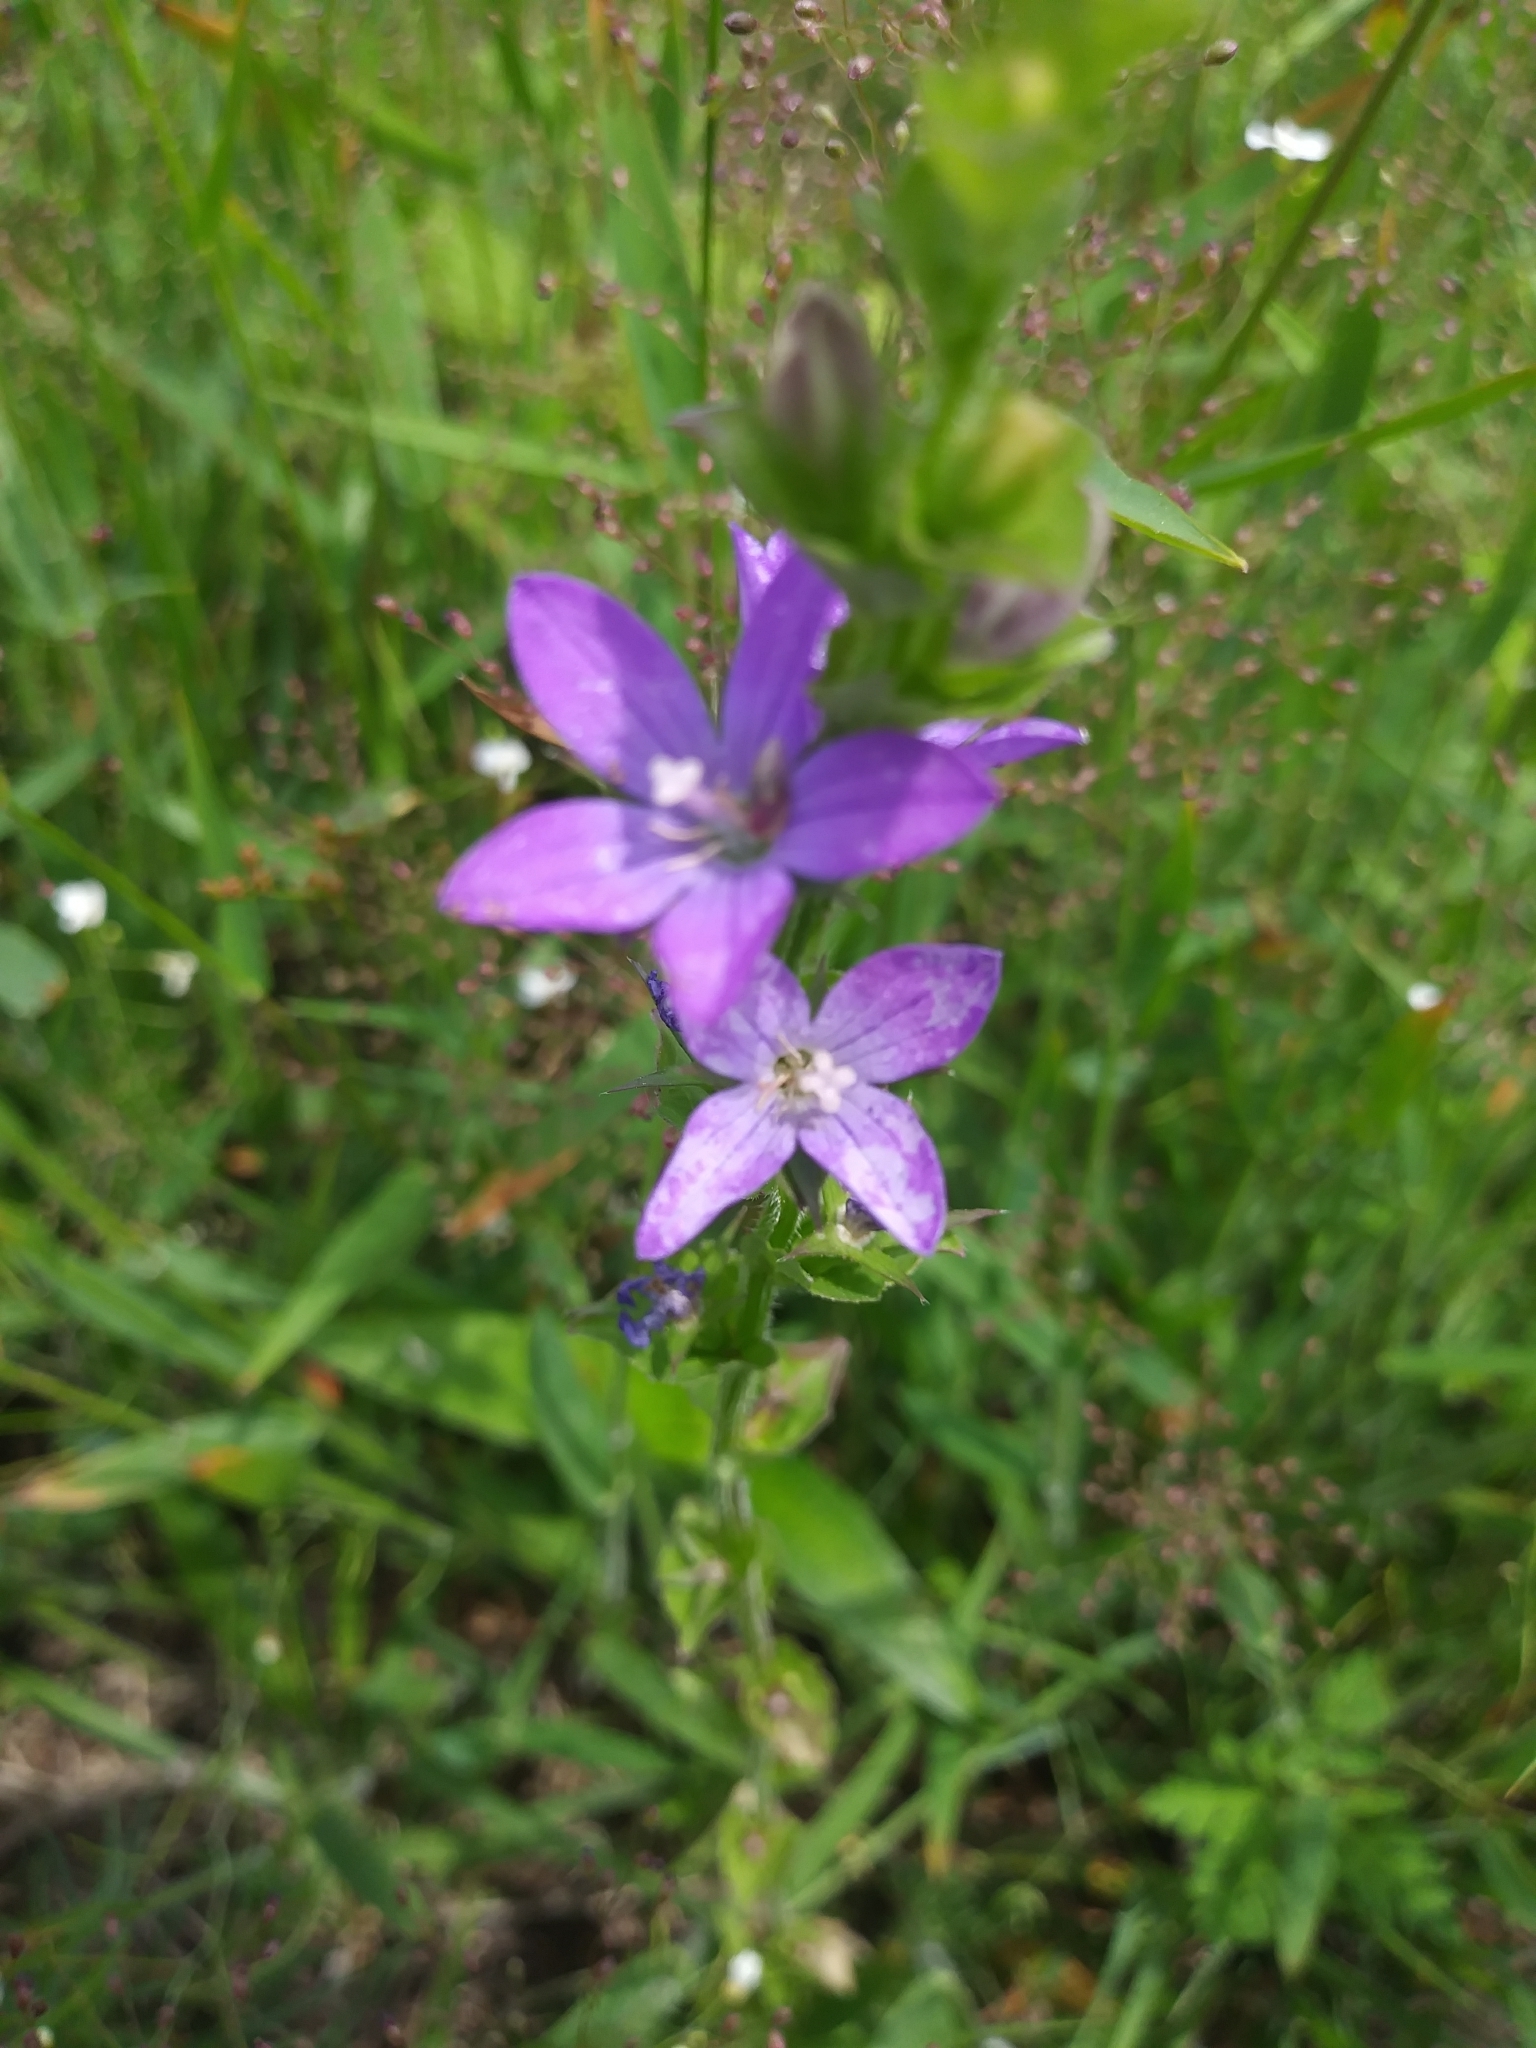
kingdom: Plantae
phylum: Tracheophyta
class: Magnoliopsida
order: Asterales
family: Campanulaceae
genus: Triodanis
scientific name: Triodanis perfoliata
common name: Clasping venus' looking-glass
